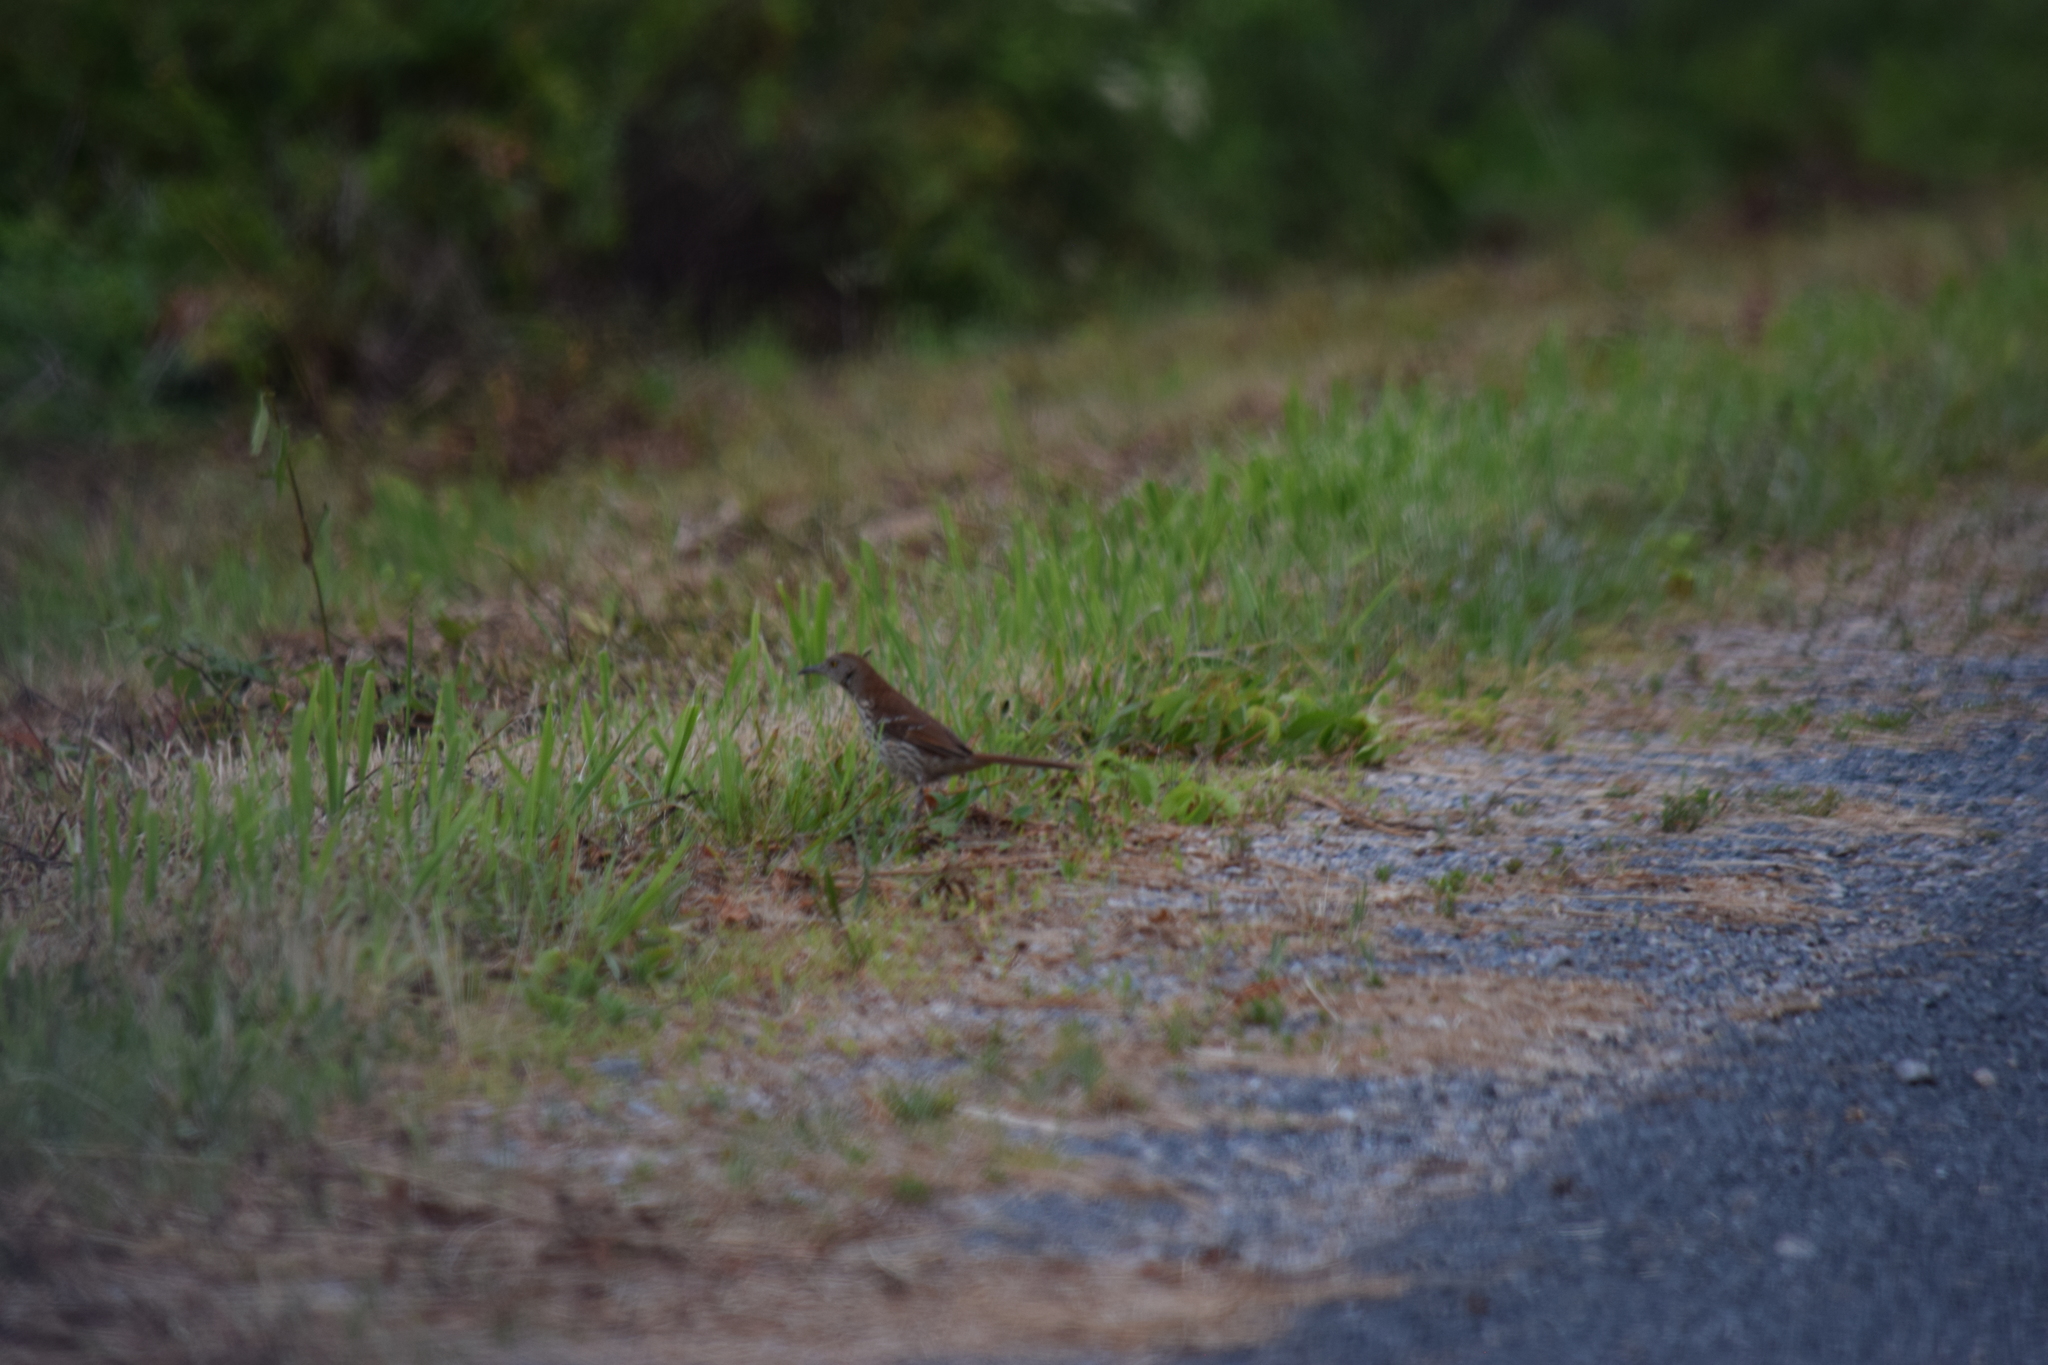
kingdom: Animalia
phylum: Chordata
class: Aves
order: Passeriformes
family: Mimidae
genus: Toxostoma
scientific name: Toxostoma rufum
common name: Brown thrasher
